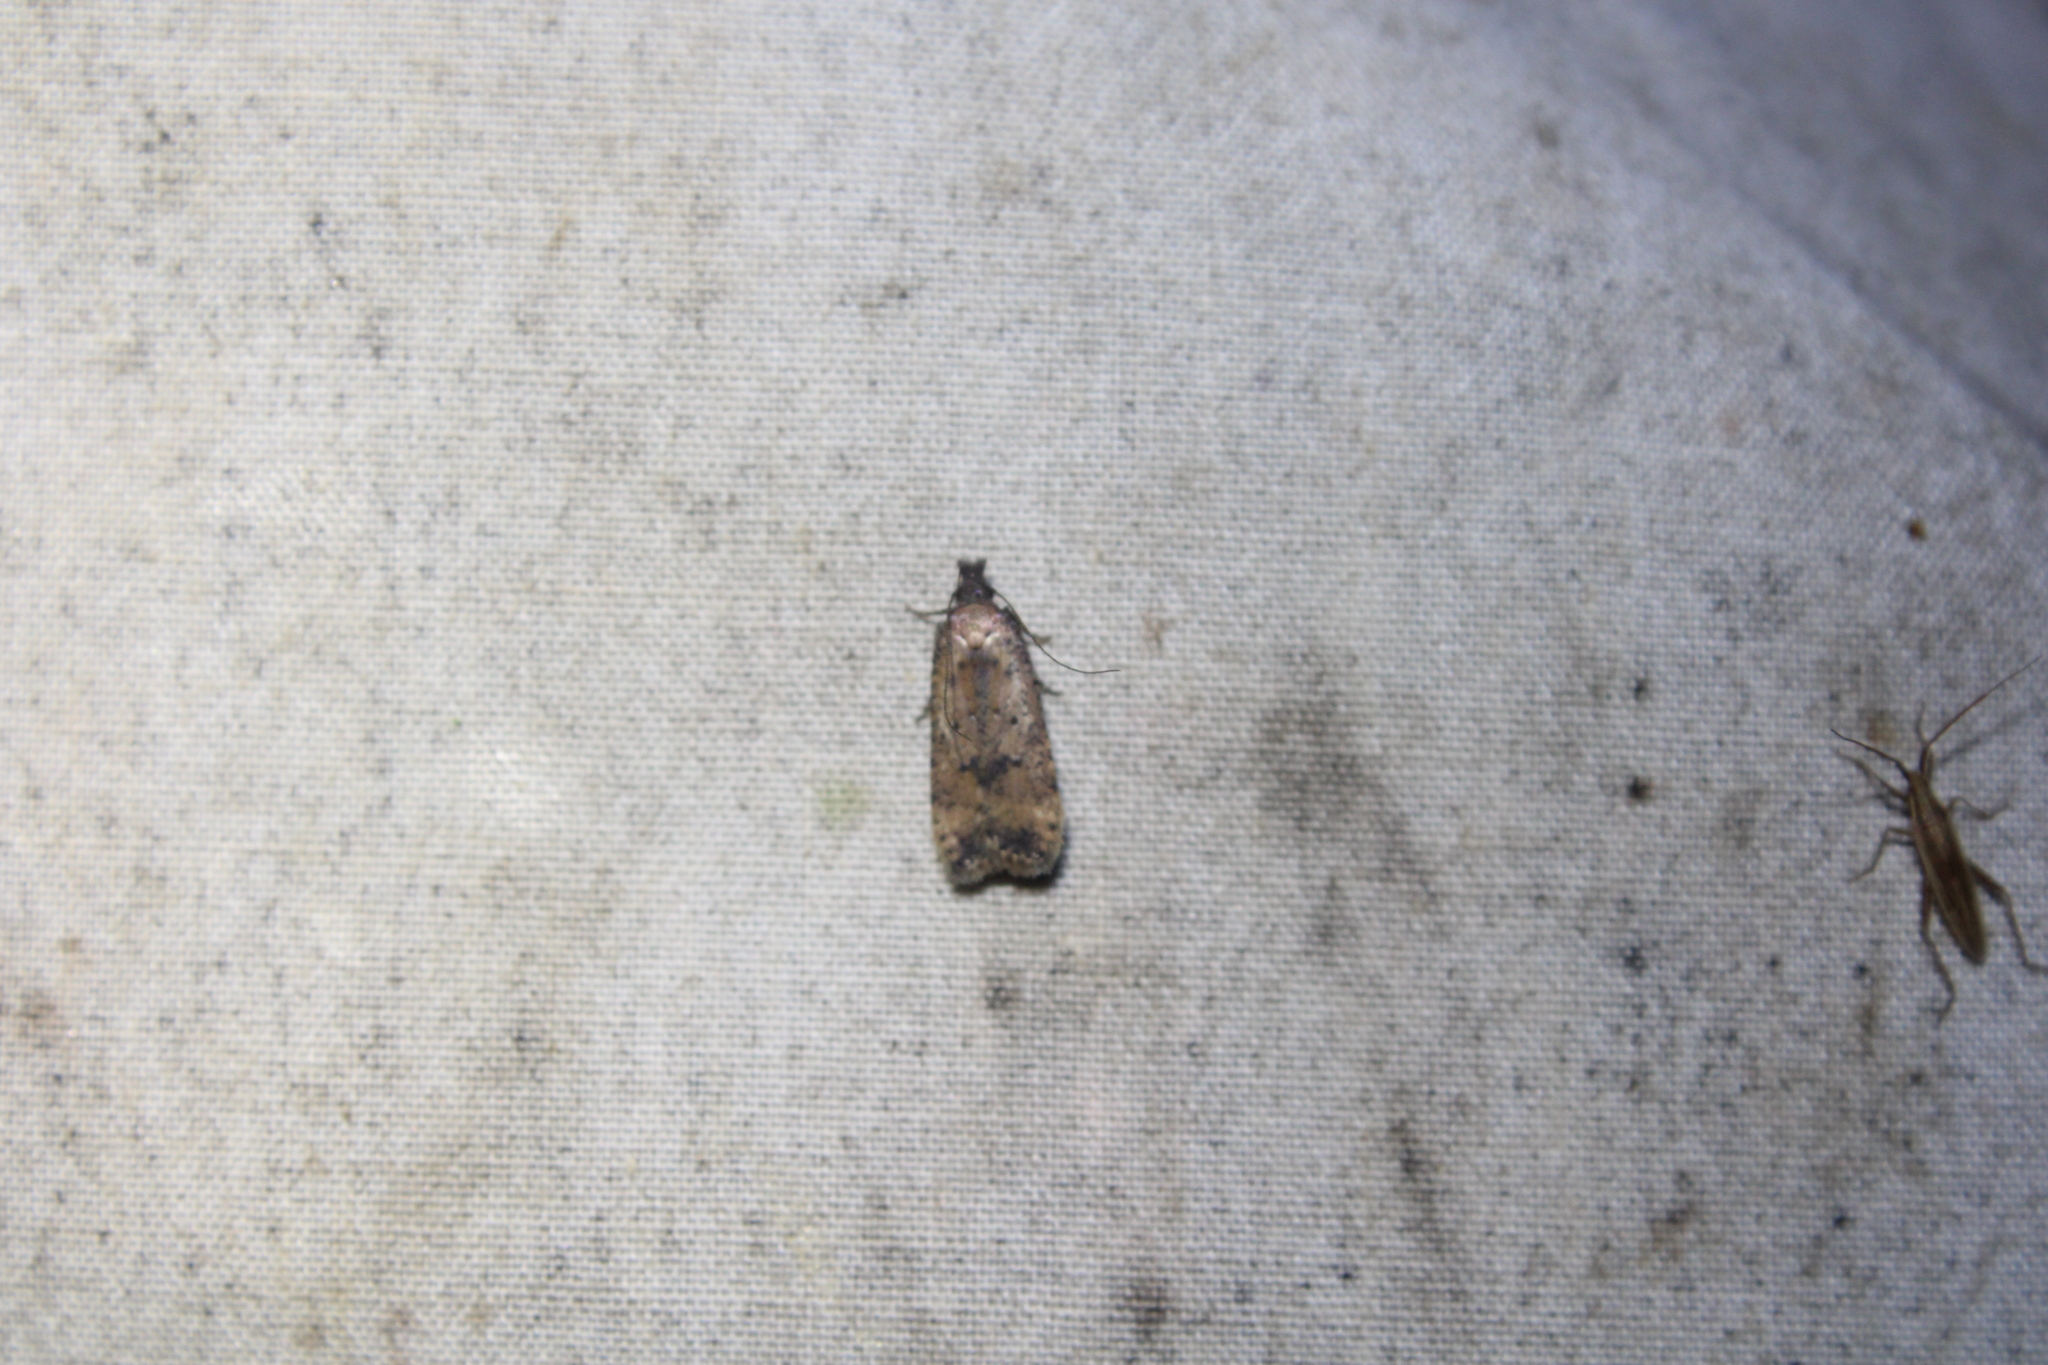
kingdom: Animalia
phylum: Arthropoda
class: Insecta
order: Lepidoptera
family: Gelechiidae
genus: Dichomeris
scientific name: Dichomeris vacciniella
